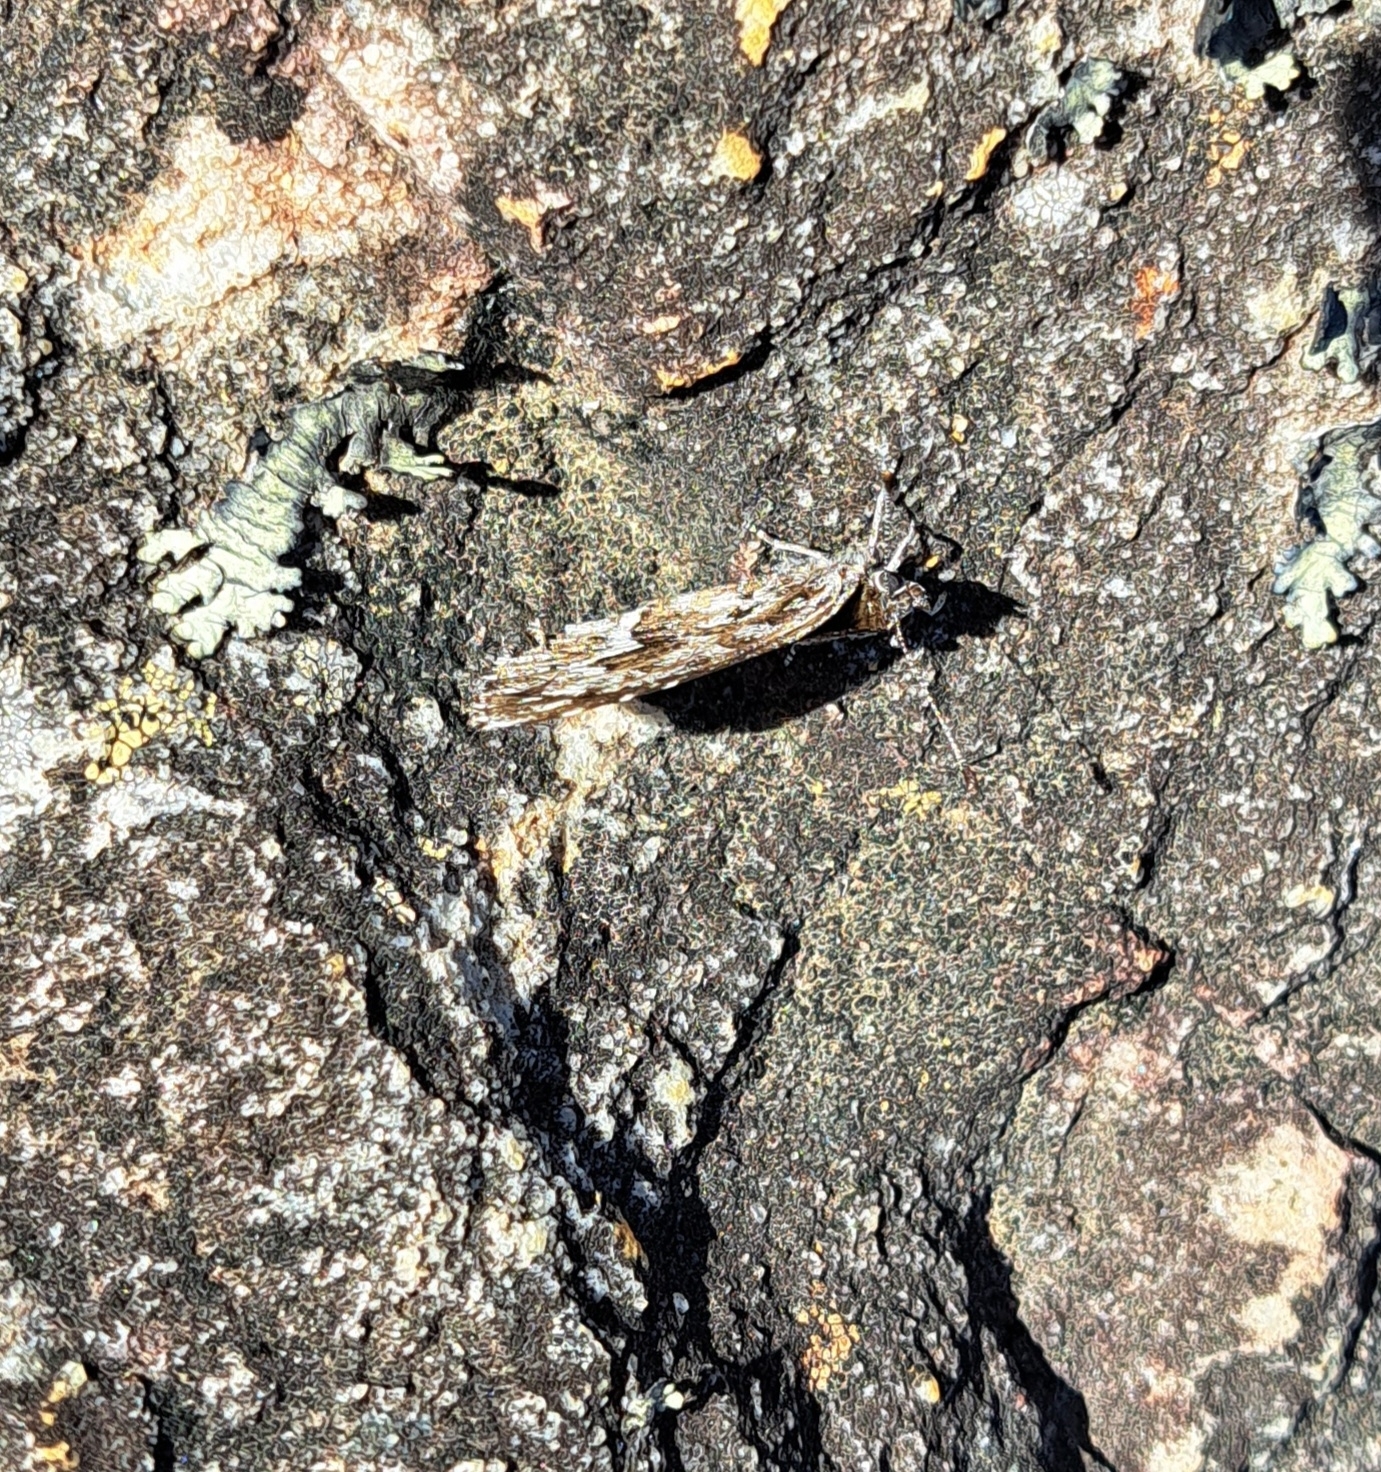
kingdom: Animalia
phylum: Arthropoda
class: Insecta
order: Lepidoptera
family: Lycaenidae
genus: Durbaniopsis
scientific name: Durbaniopsis saga
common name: Boland rocksitter
